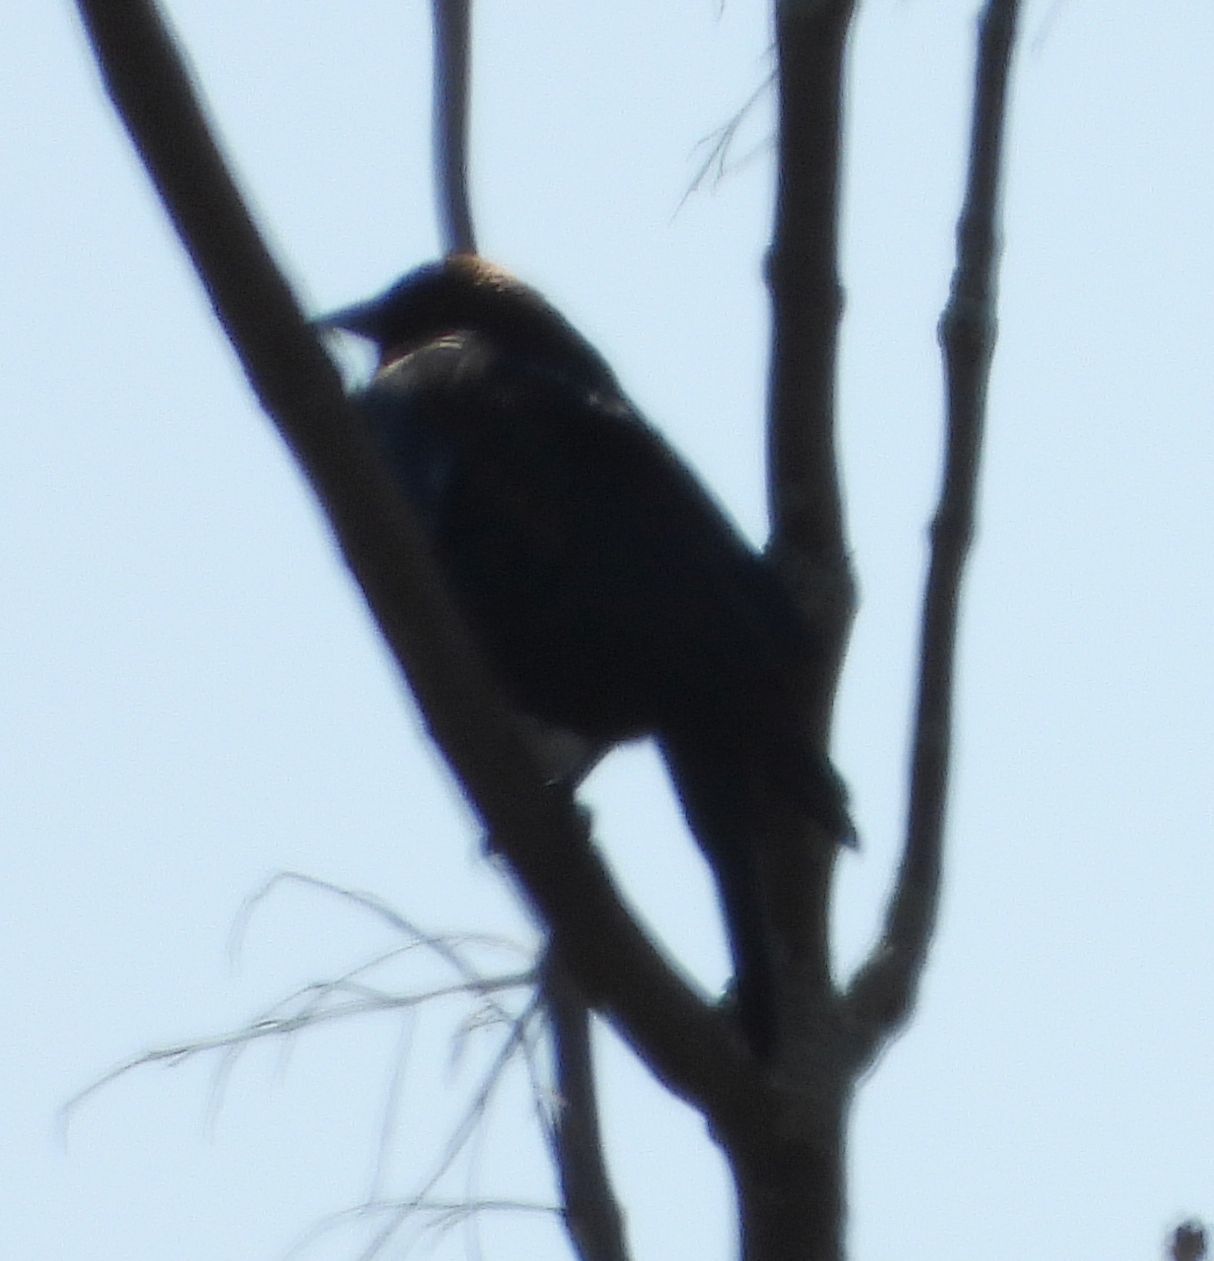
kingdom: Animalia
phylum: Chordata
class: Aves
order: Passeriformes
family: Icteridae
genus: Molothrus
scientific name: Molothrus ater
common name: Brown-headed cowbird
